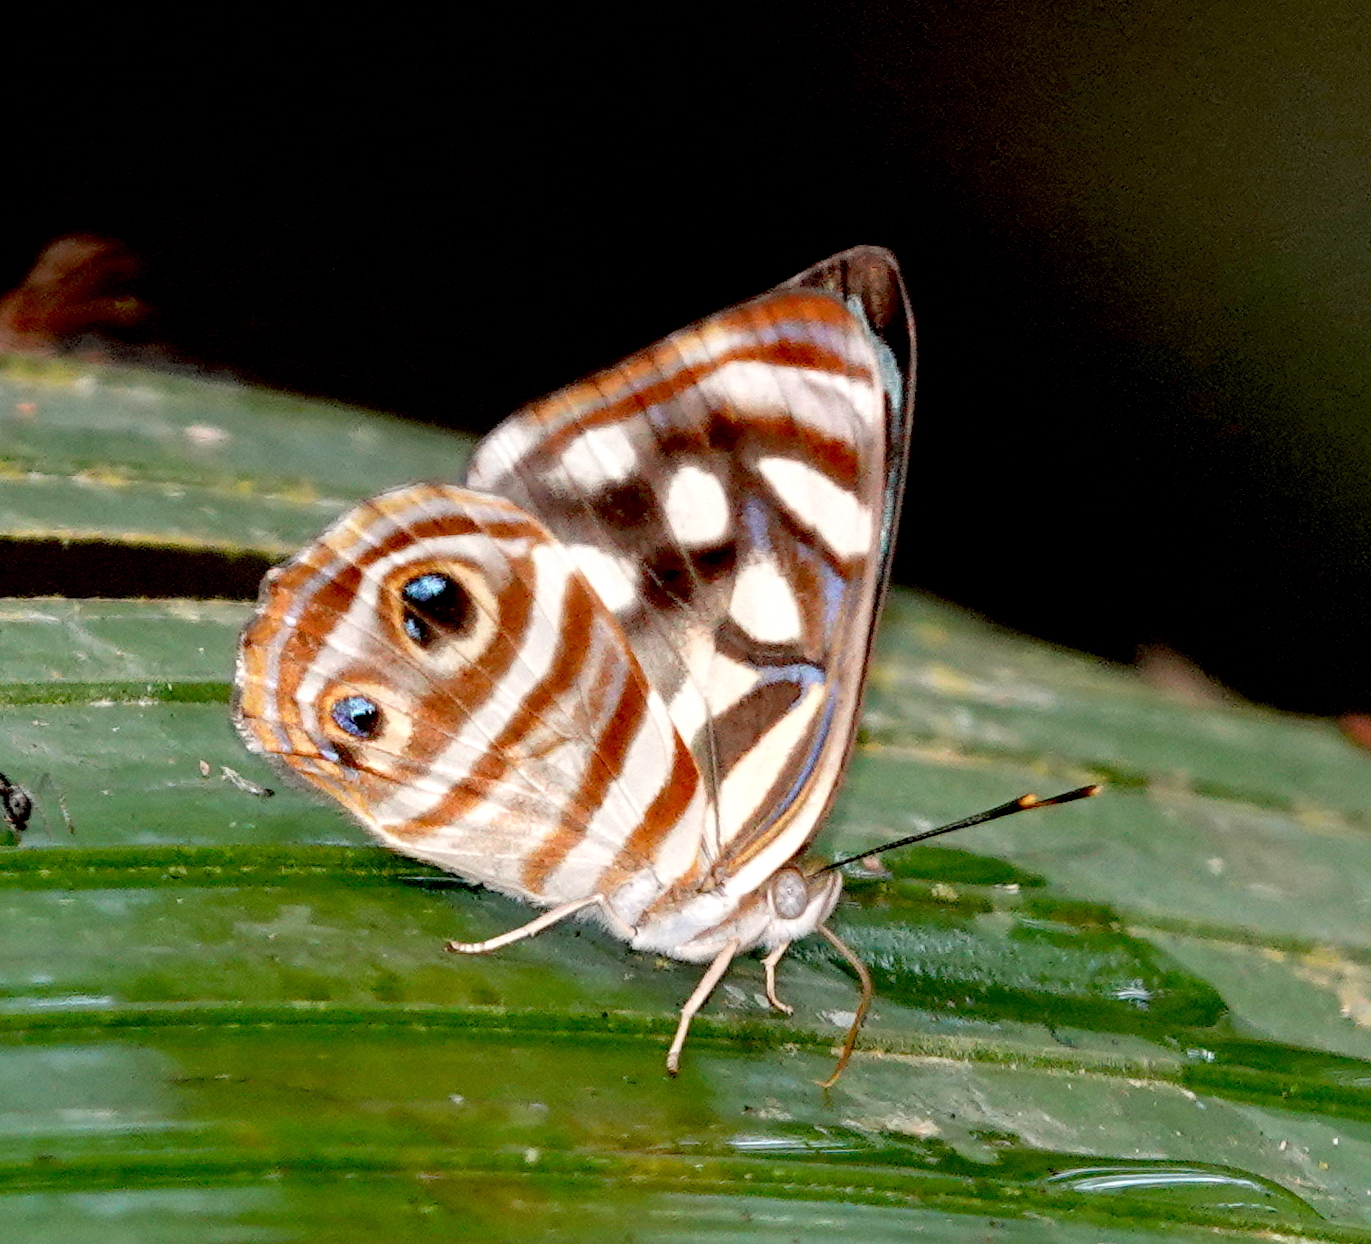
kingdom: Animalia
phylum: Arthropoda
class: Insecta
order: Lepidoptera
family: Nymphalidae
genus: Dynamine
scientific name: Dynamine mylitta
